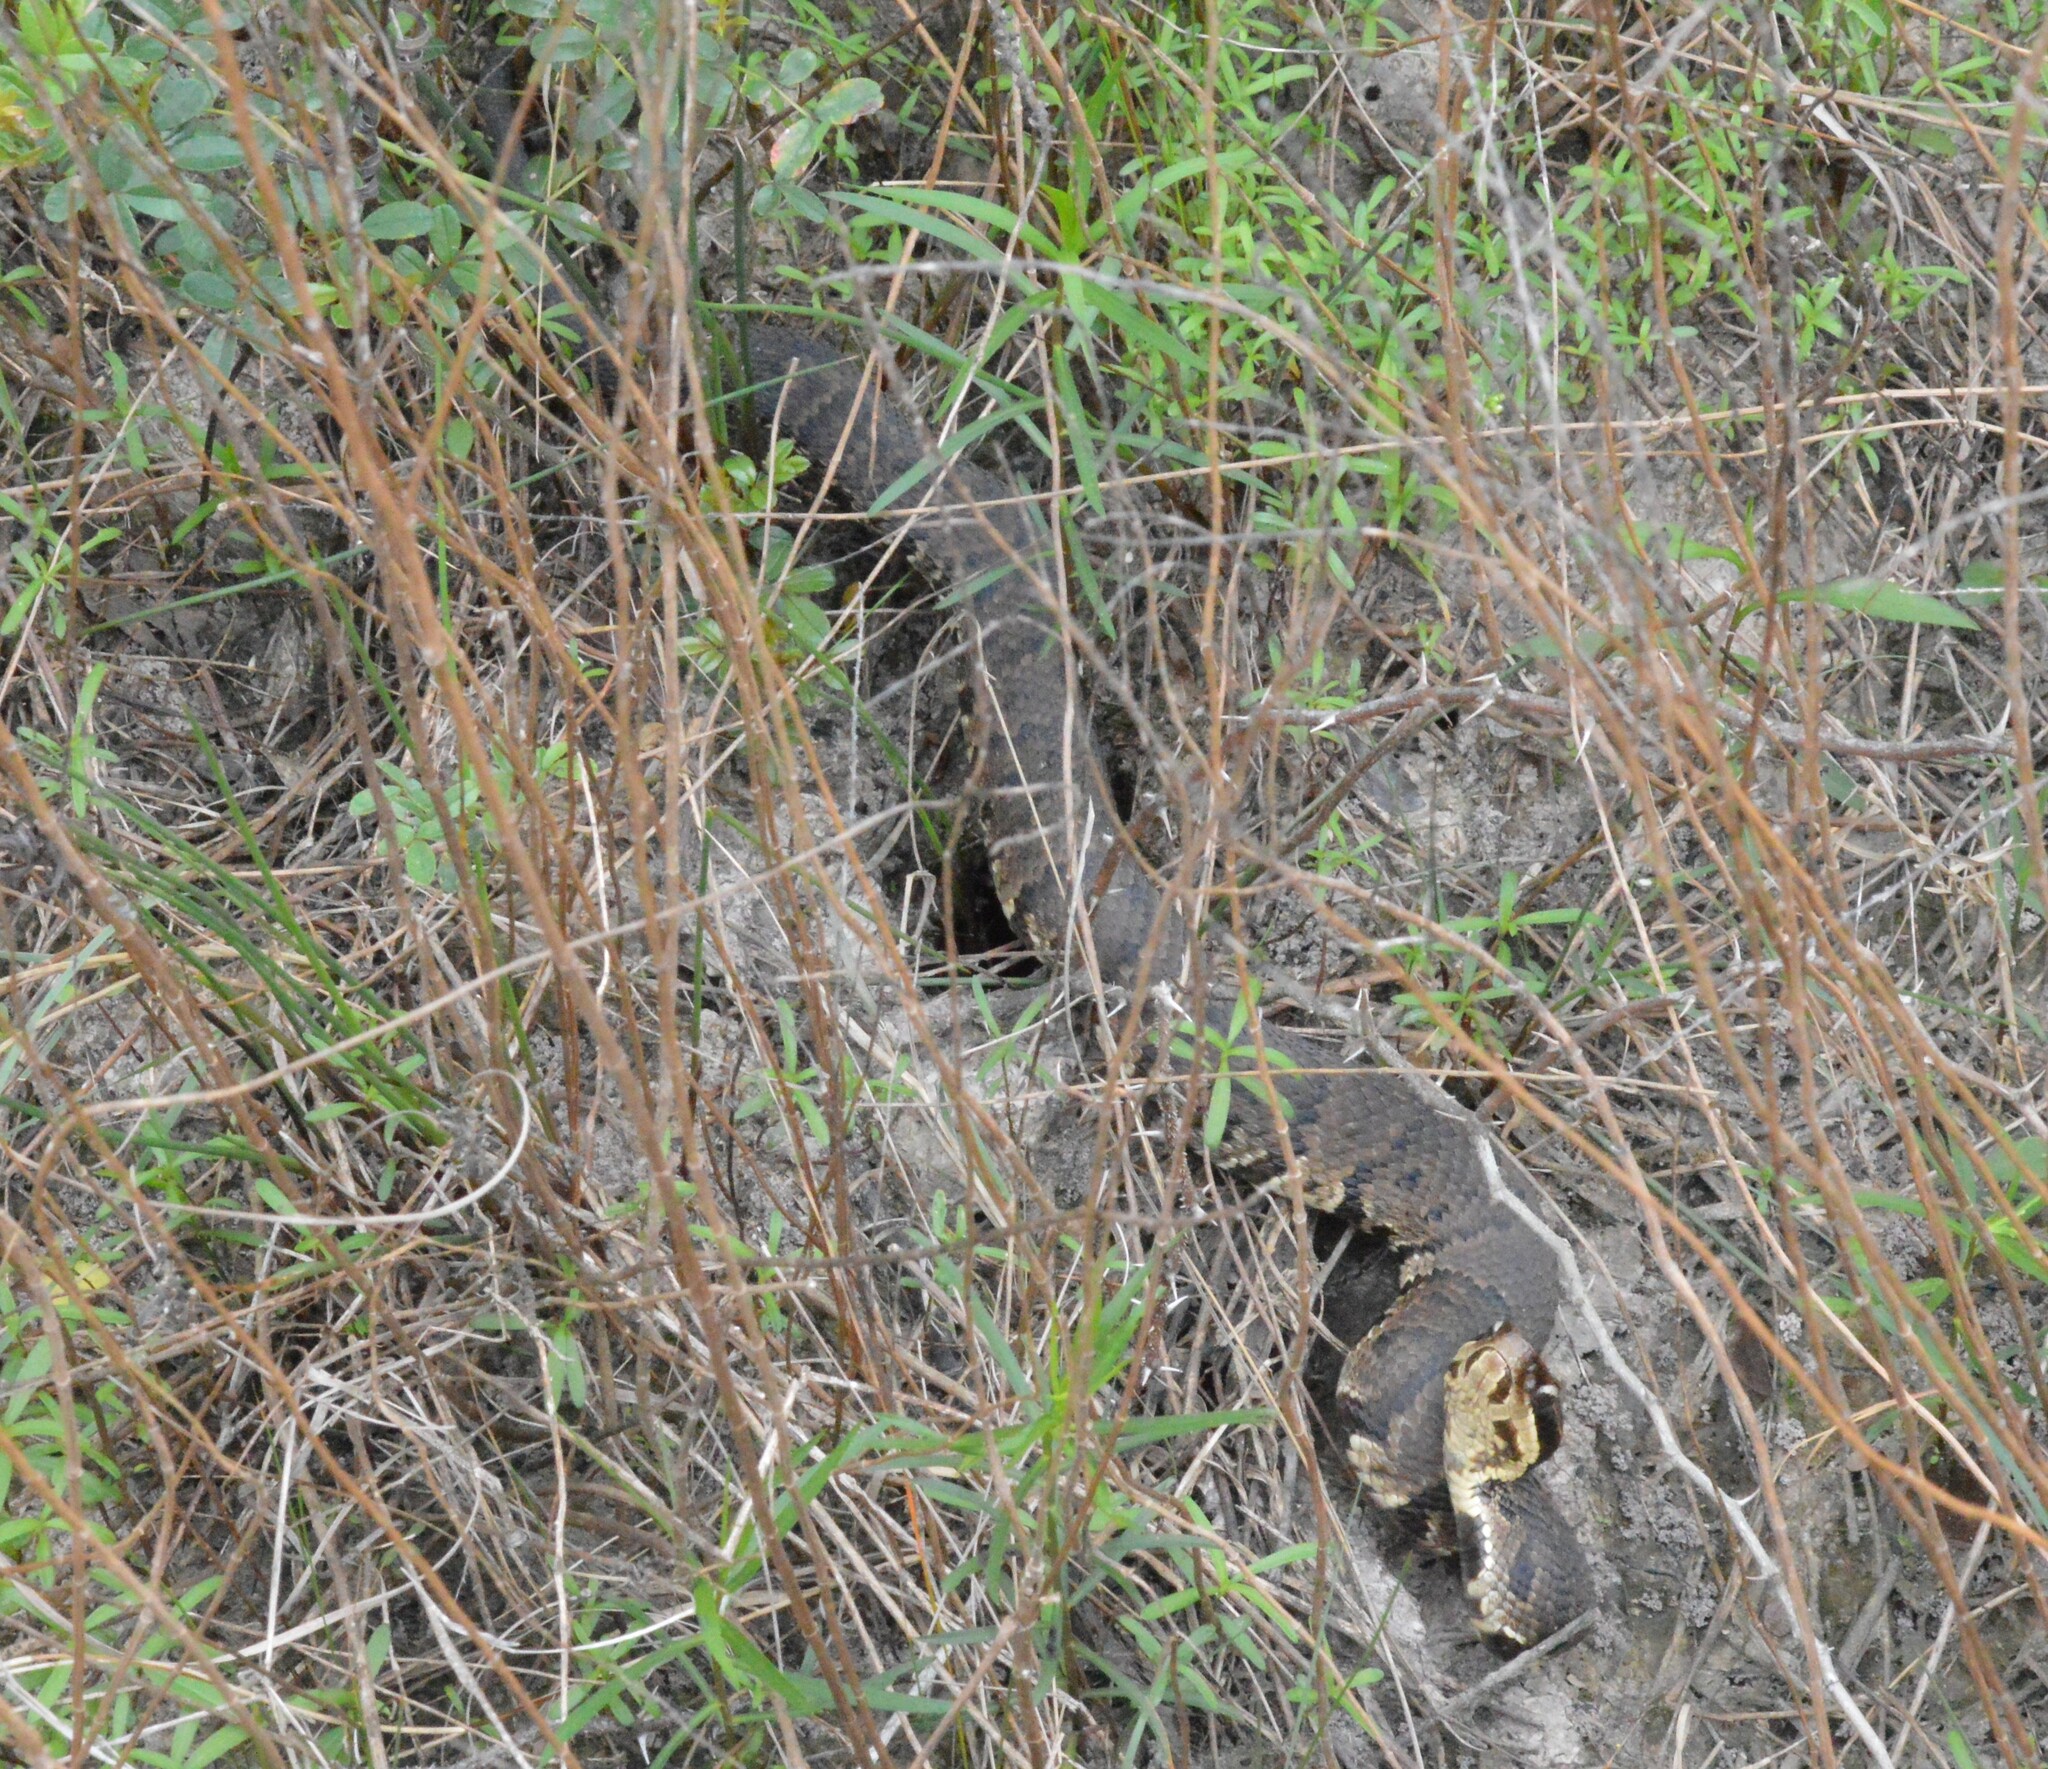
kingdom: Animalia
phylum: Chordata
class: Squamata
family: Viperidae
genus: Agkistrodon
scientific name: Agkistrodon piscivorus
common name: Cottonmouth
